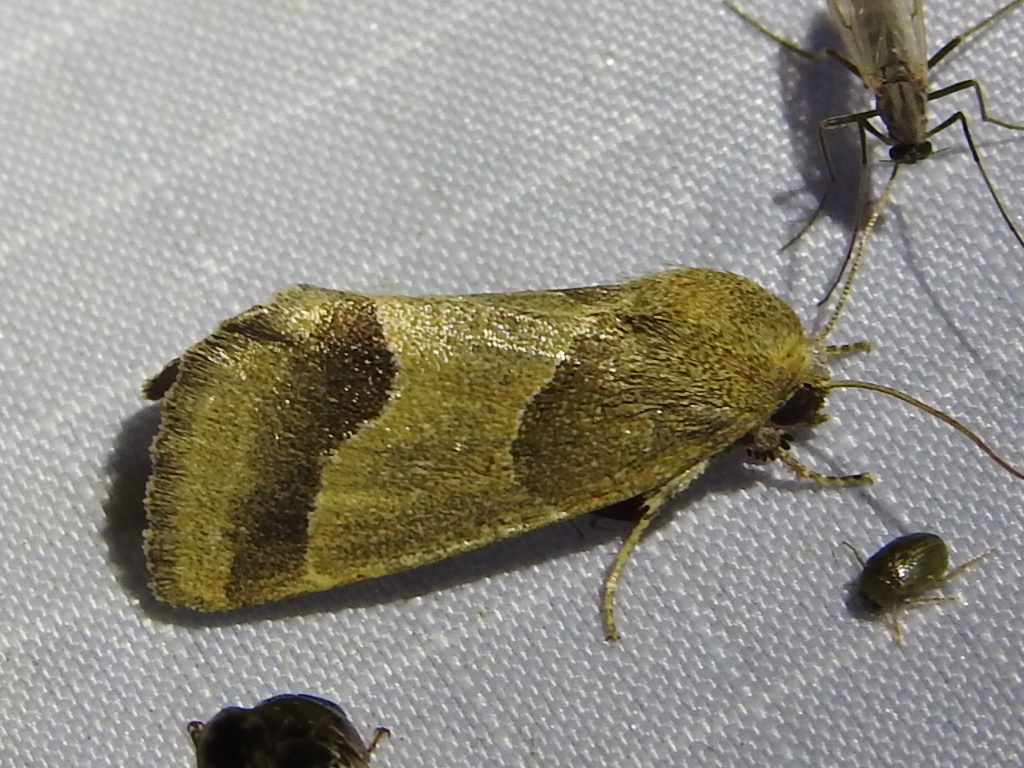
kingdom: Animalia
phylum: Arthropoda
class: Insecta
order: Lepidoptera
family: Noctuidae
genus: Schinia
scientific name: Schinia gracilenta
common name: Slender flower moth
